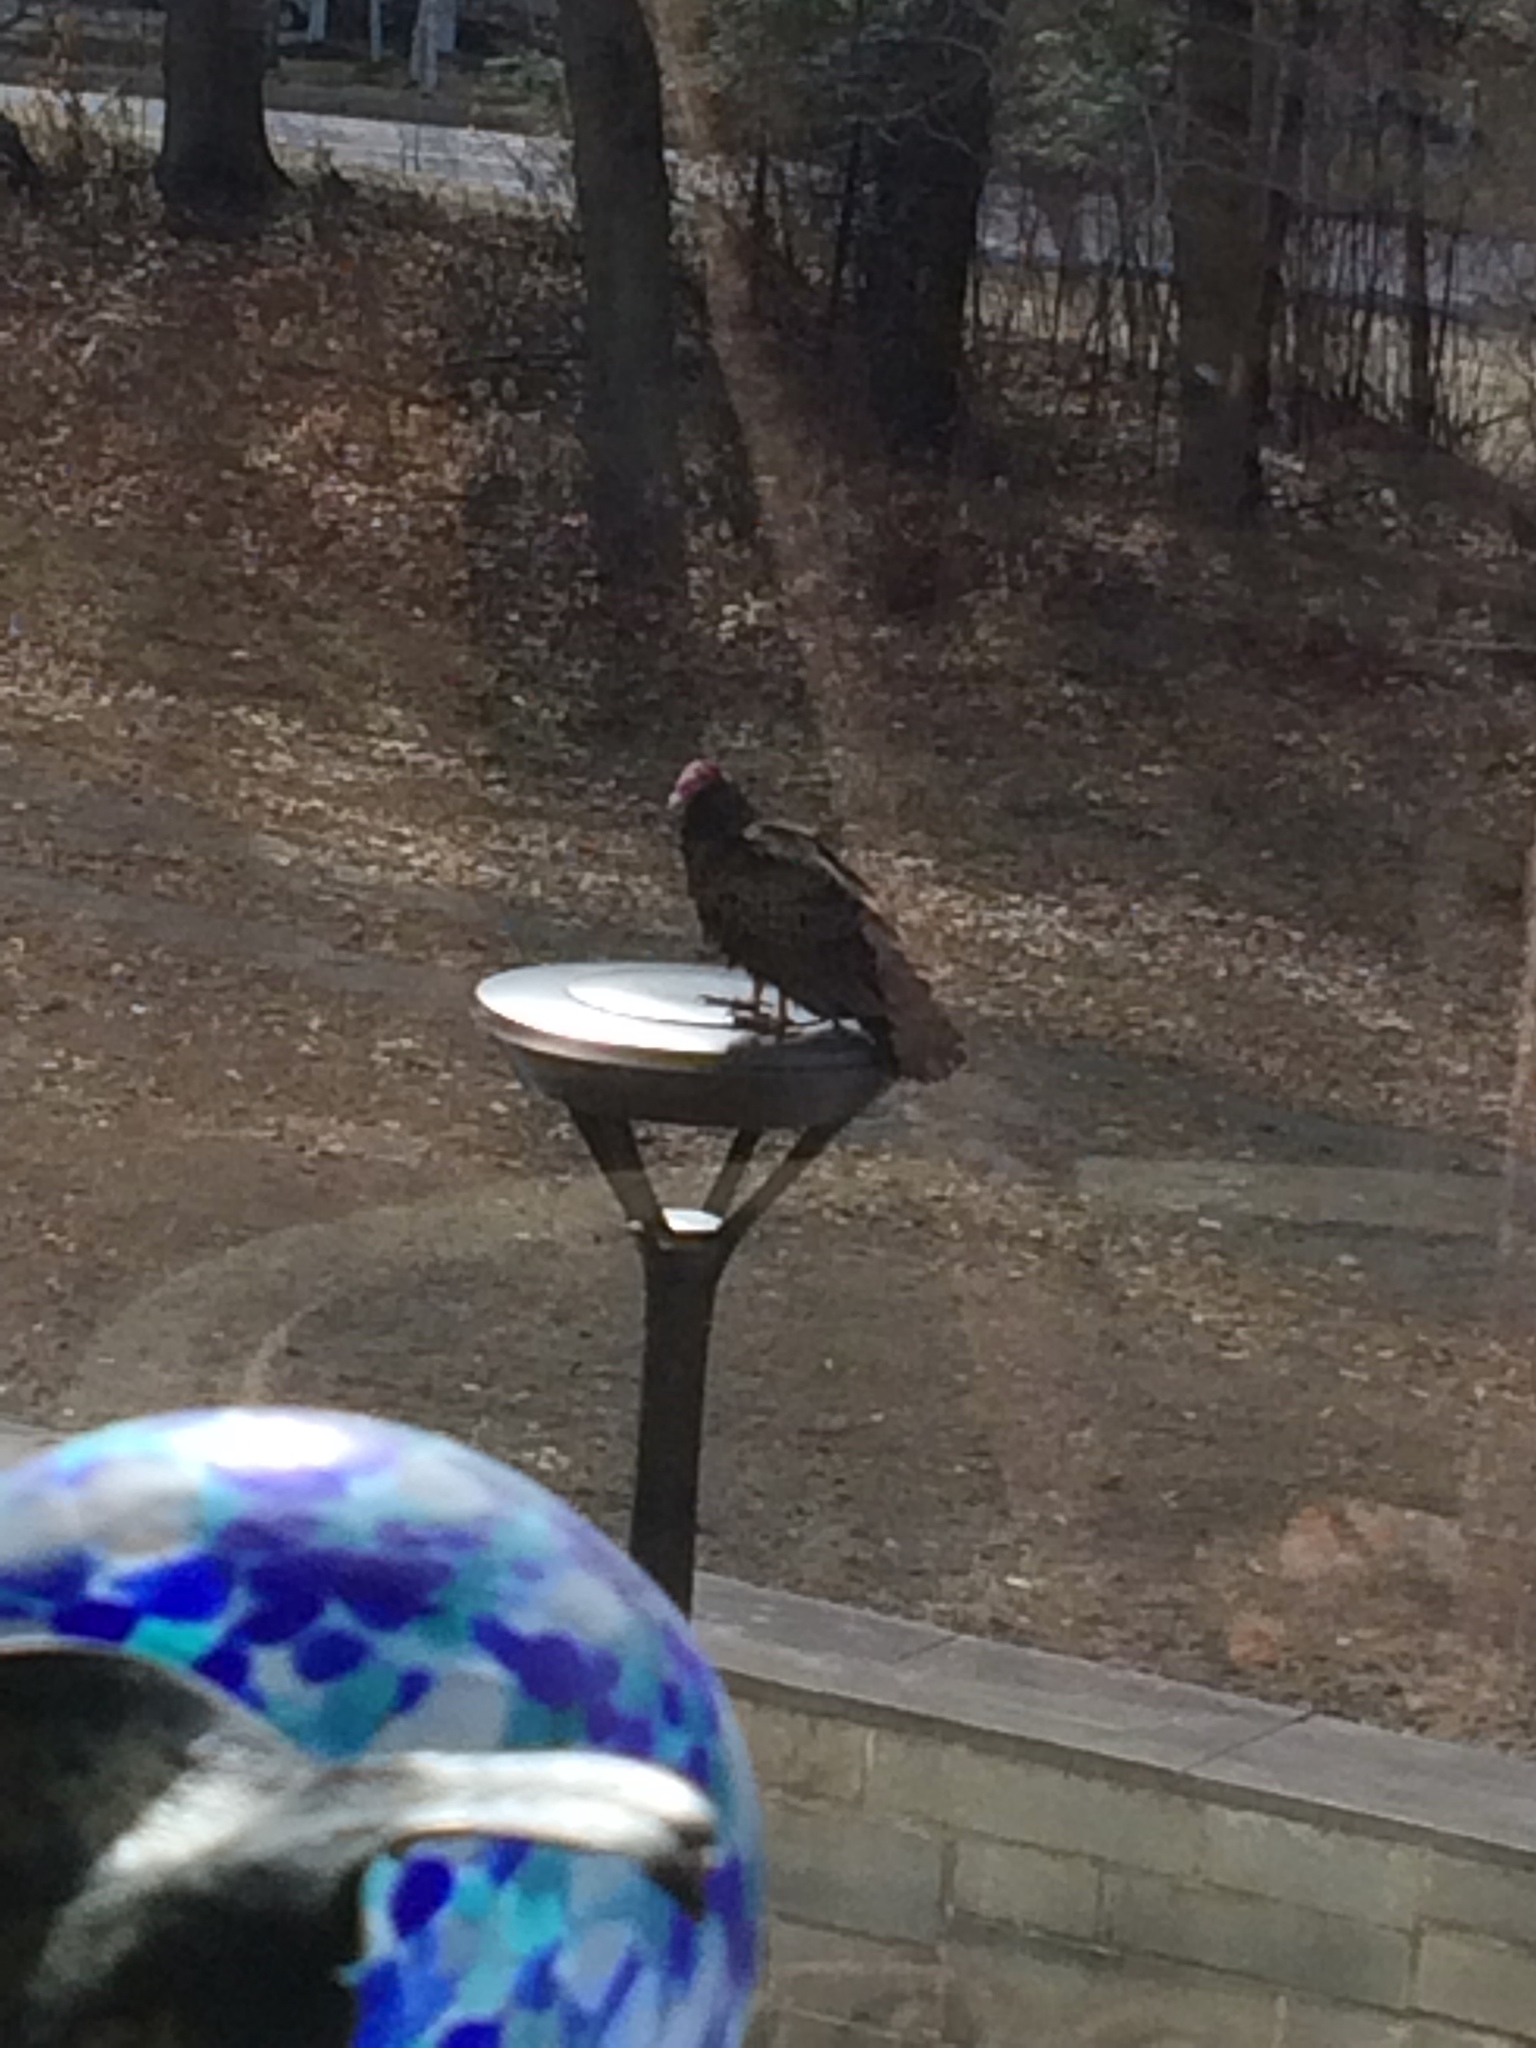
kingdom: Animalia
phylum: Chordata
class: Aves
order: Accipitriformes
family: Cathartidae
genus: Cathartes
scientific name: Cathartes aura
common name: Turkey vulture
